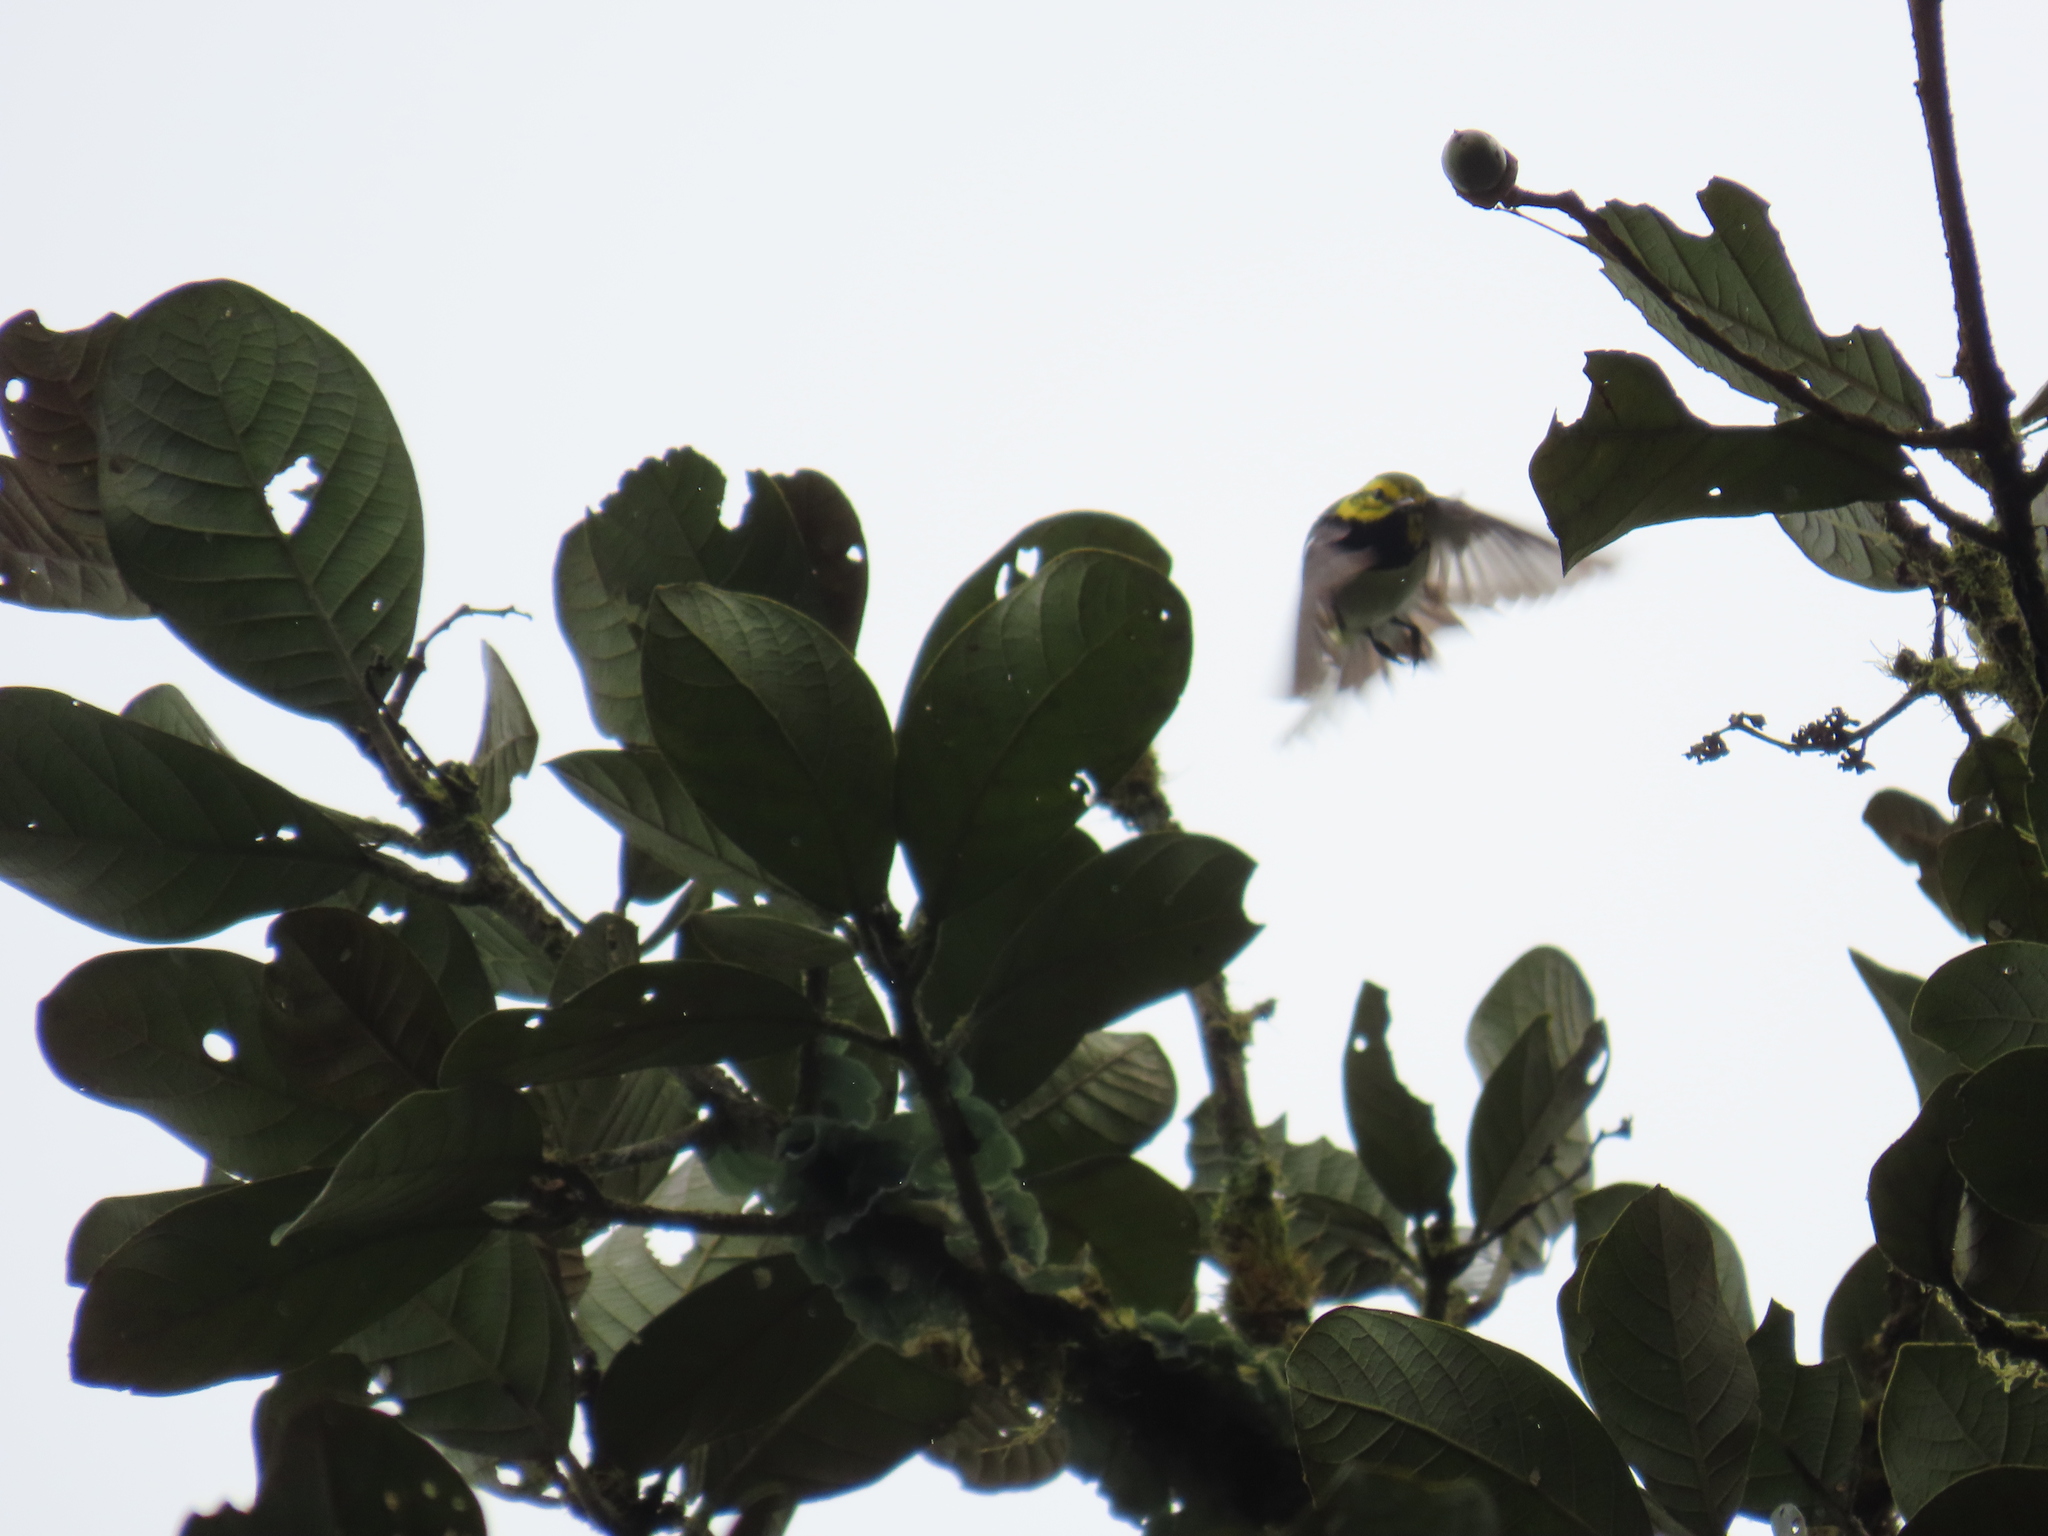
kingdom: Animalia
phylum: Chordata
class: Aves
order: Passeriformes
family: Parulidae
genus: Setophaga
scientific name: Setophaga virens
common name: Black-throated green warbler
